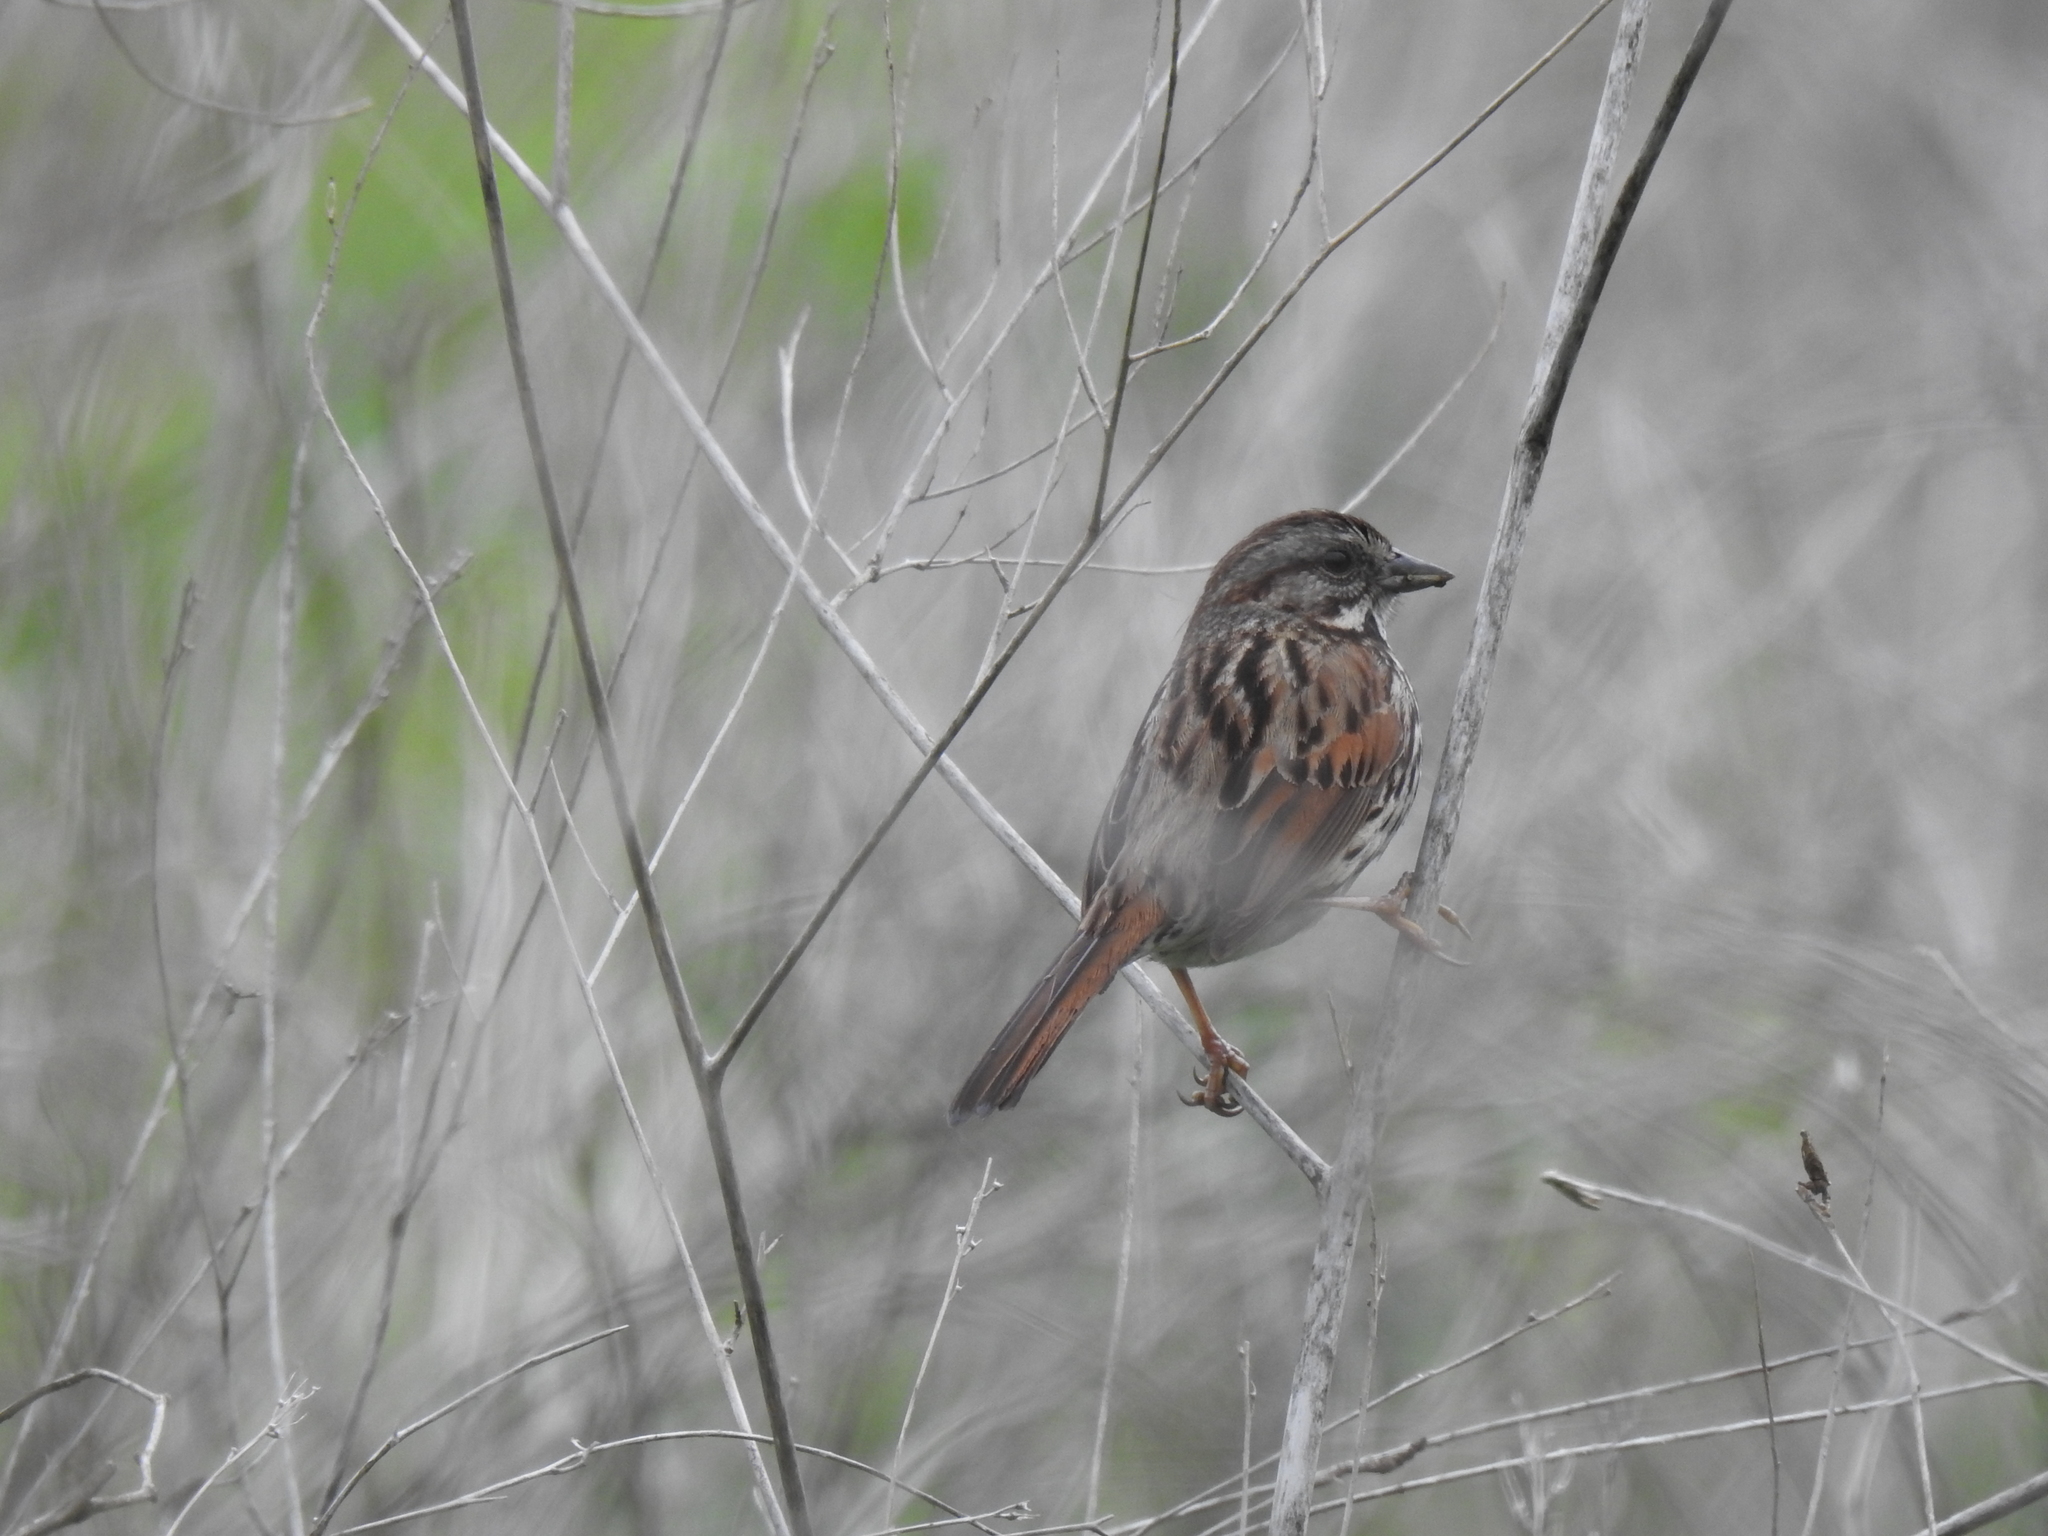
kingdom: Animalia
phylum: Chordata
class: Aves
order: Passeriformes
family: Passerellidae
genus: Melospiza
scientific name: Melospiza melodia
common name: Song sparrow
